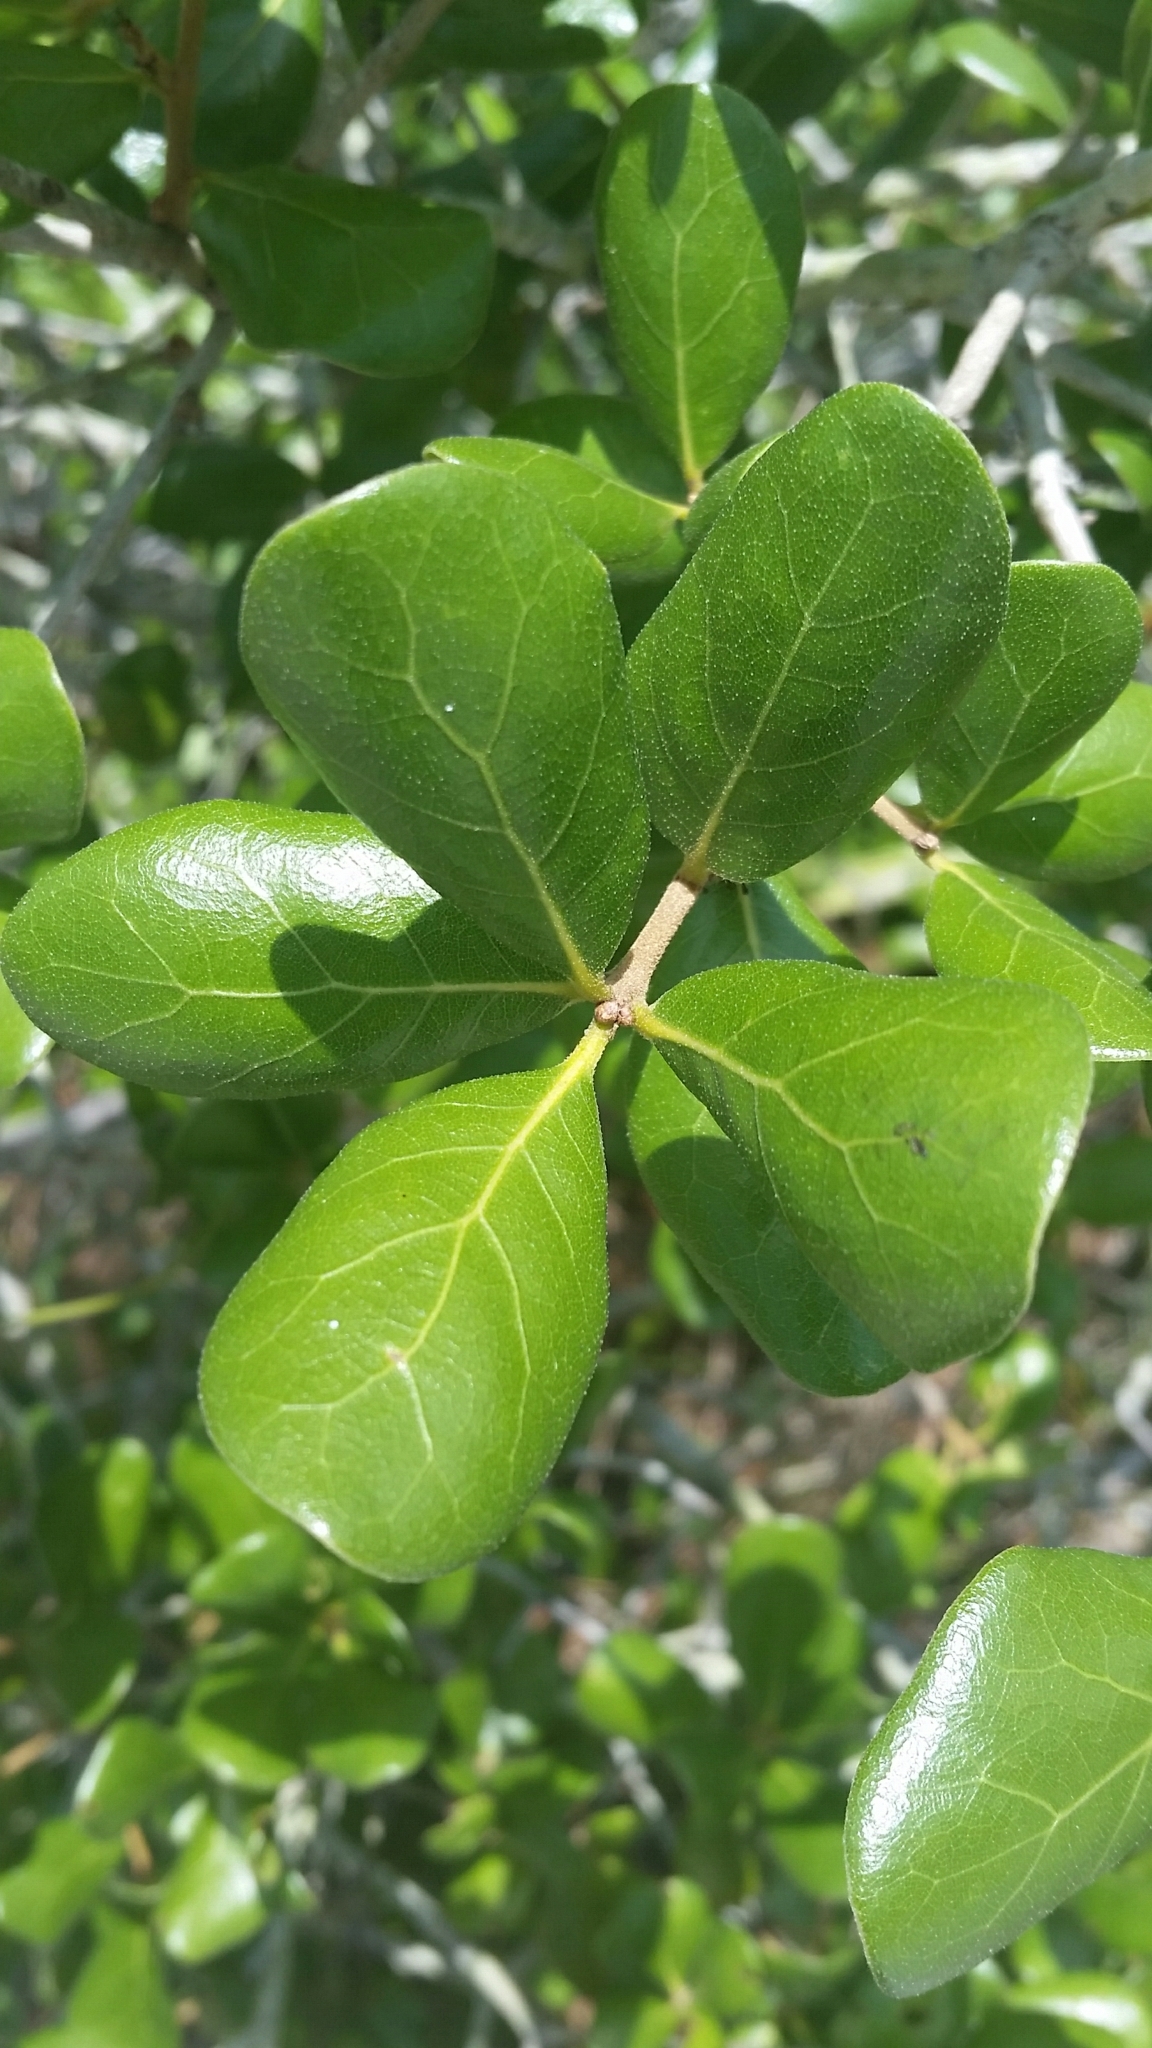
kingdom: Plantae
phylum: Tracheophyta
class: Magnoliopsida
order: Fagales
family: Fagaceae
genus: Quercus
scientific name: Quercus myrtifolia
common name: Myrtle oak
